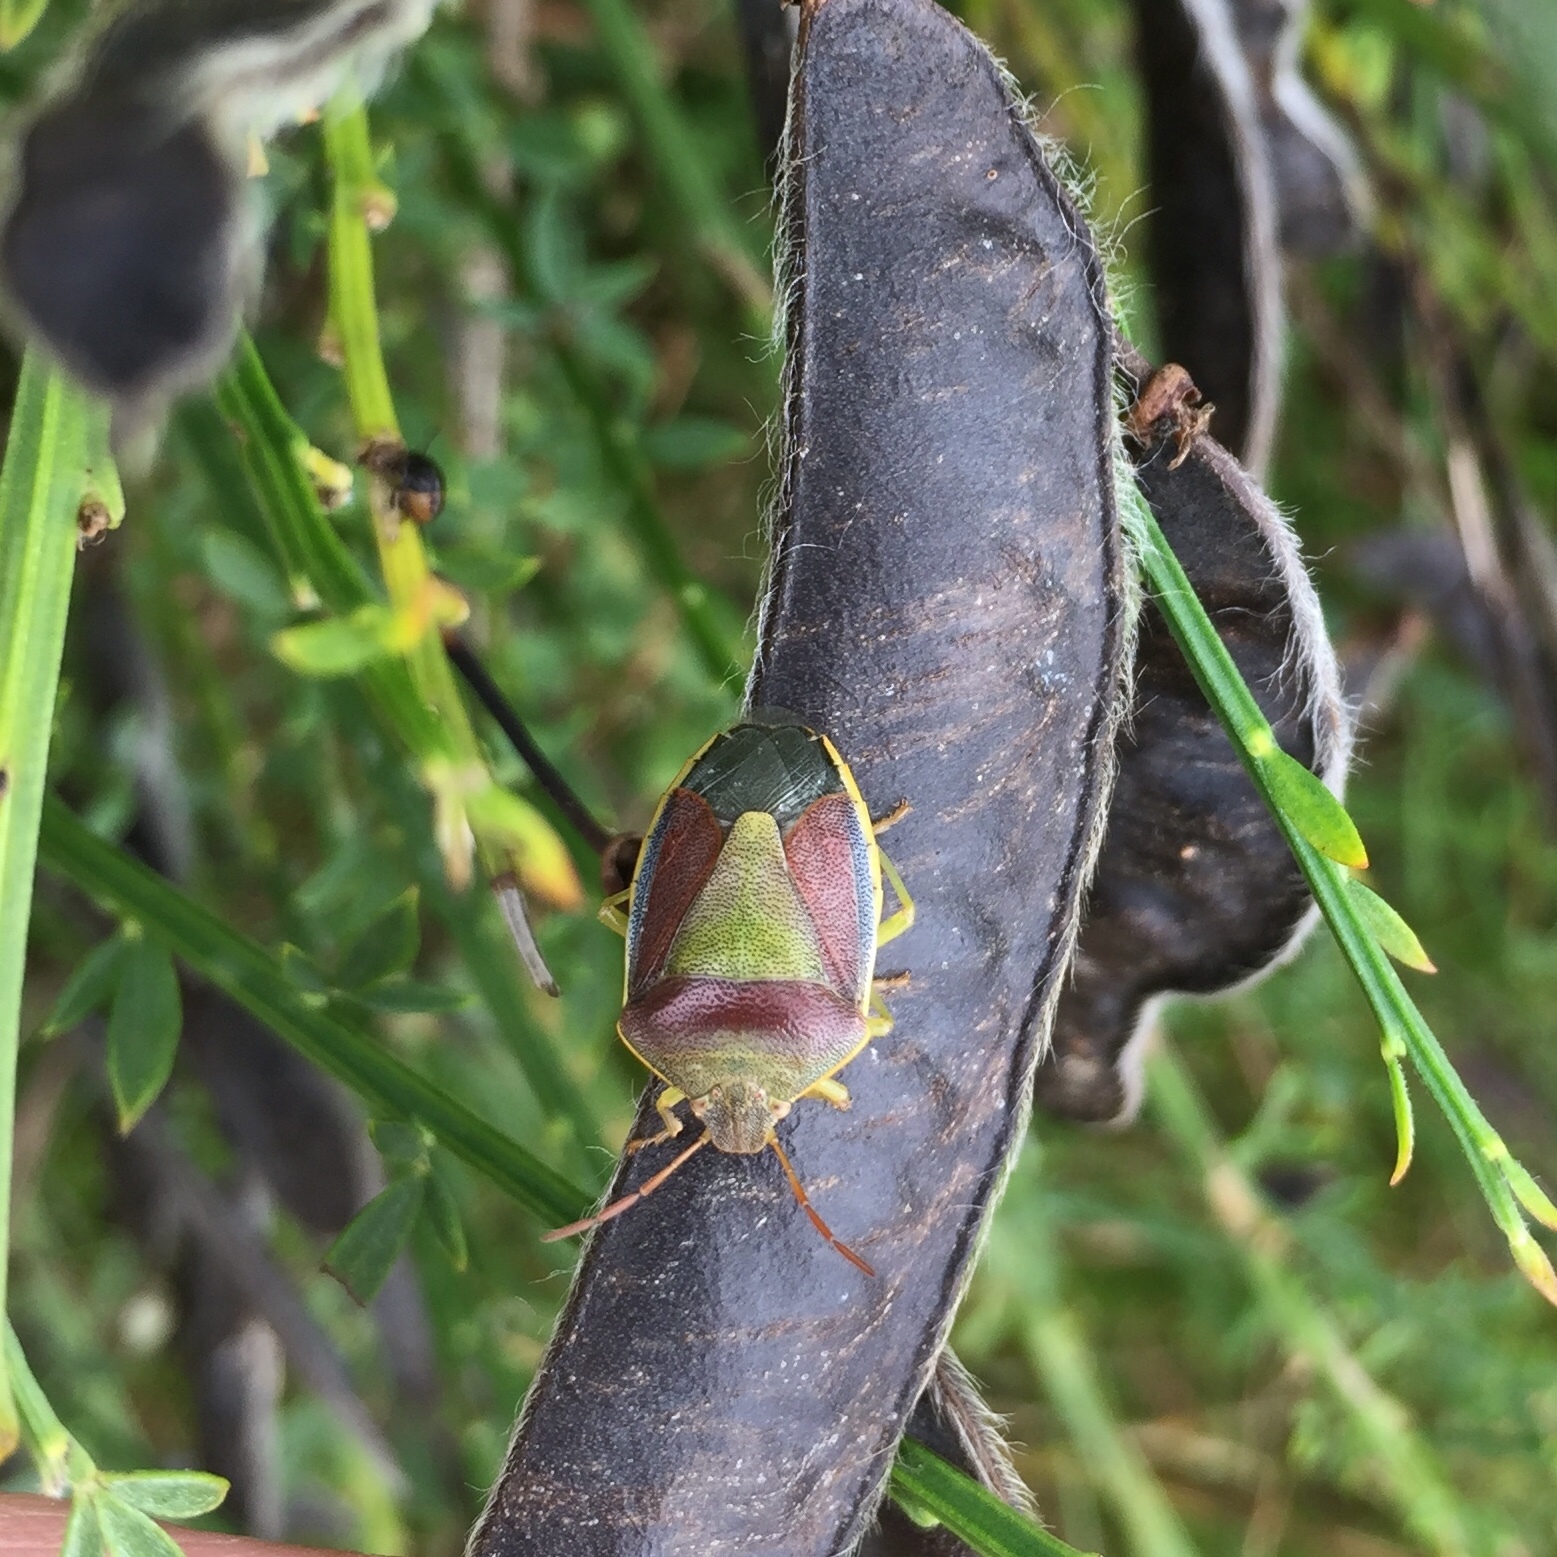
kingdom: Animalia
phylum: Arthropoda
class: Insecta
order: Hemiptera
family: Pentatomidae
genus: Piezodorus
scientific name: Piezodorus lituratus
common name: Stink bug
